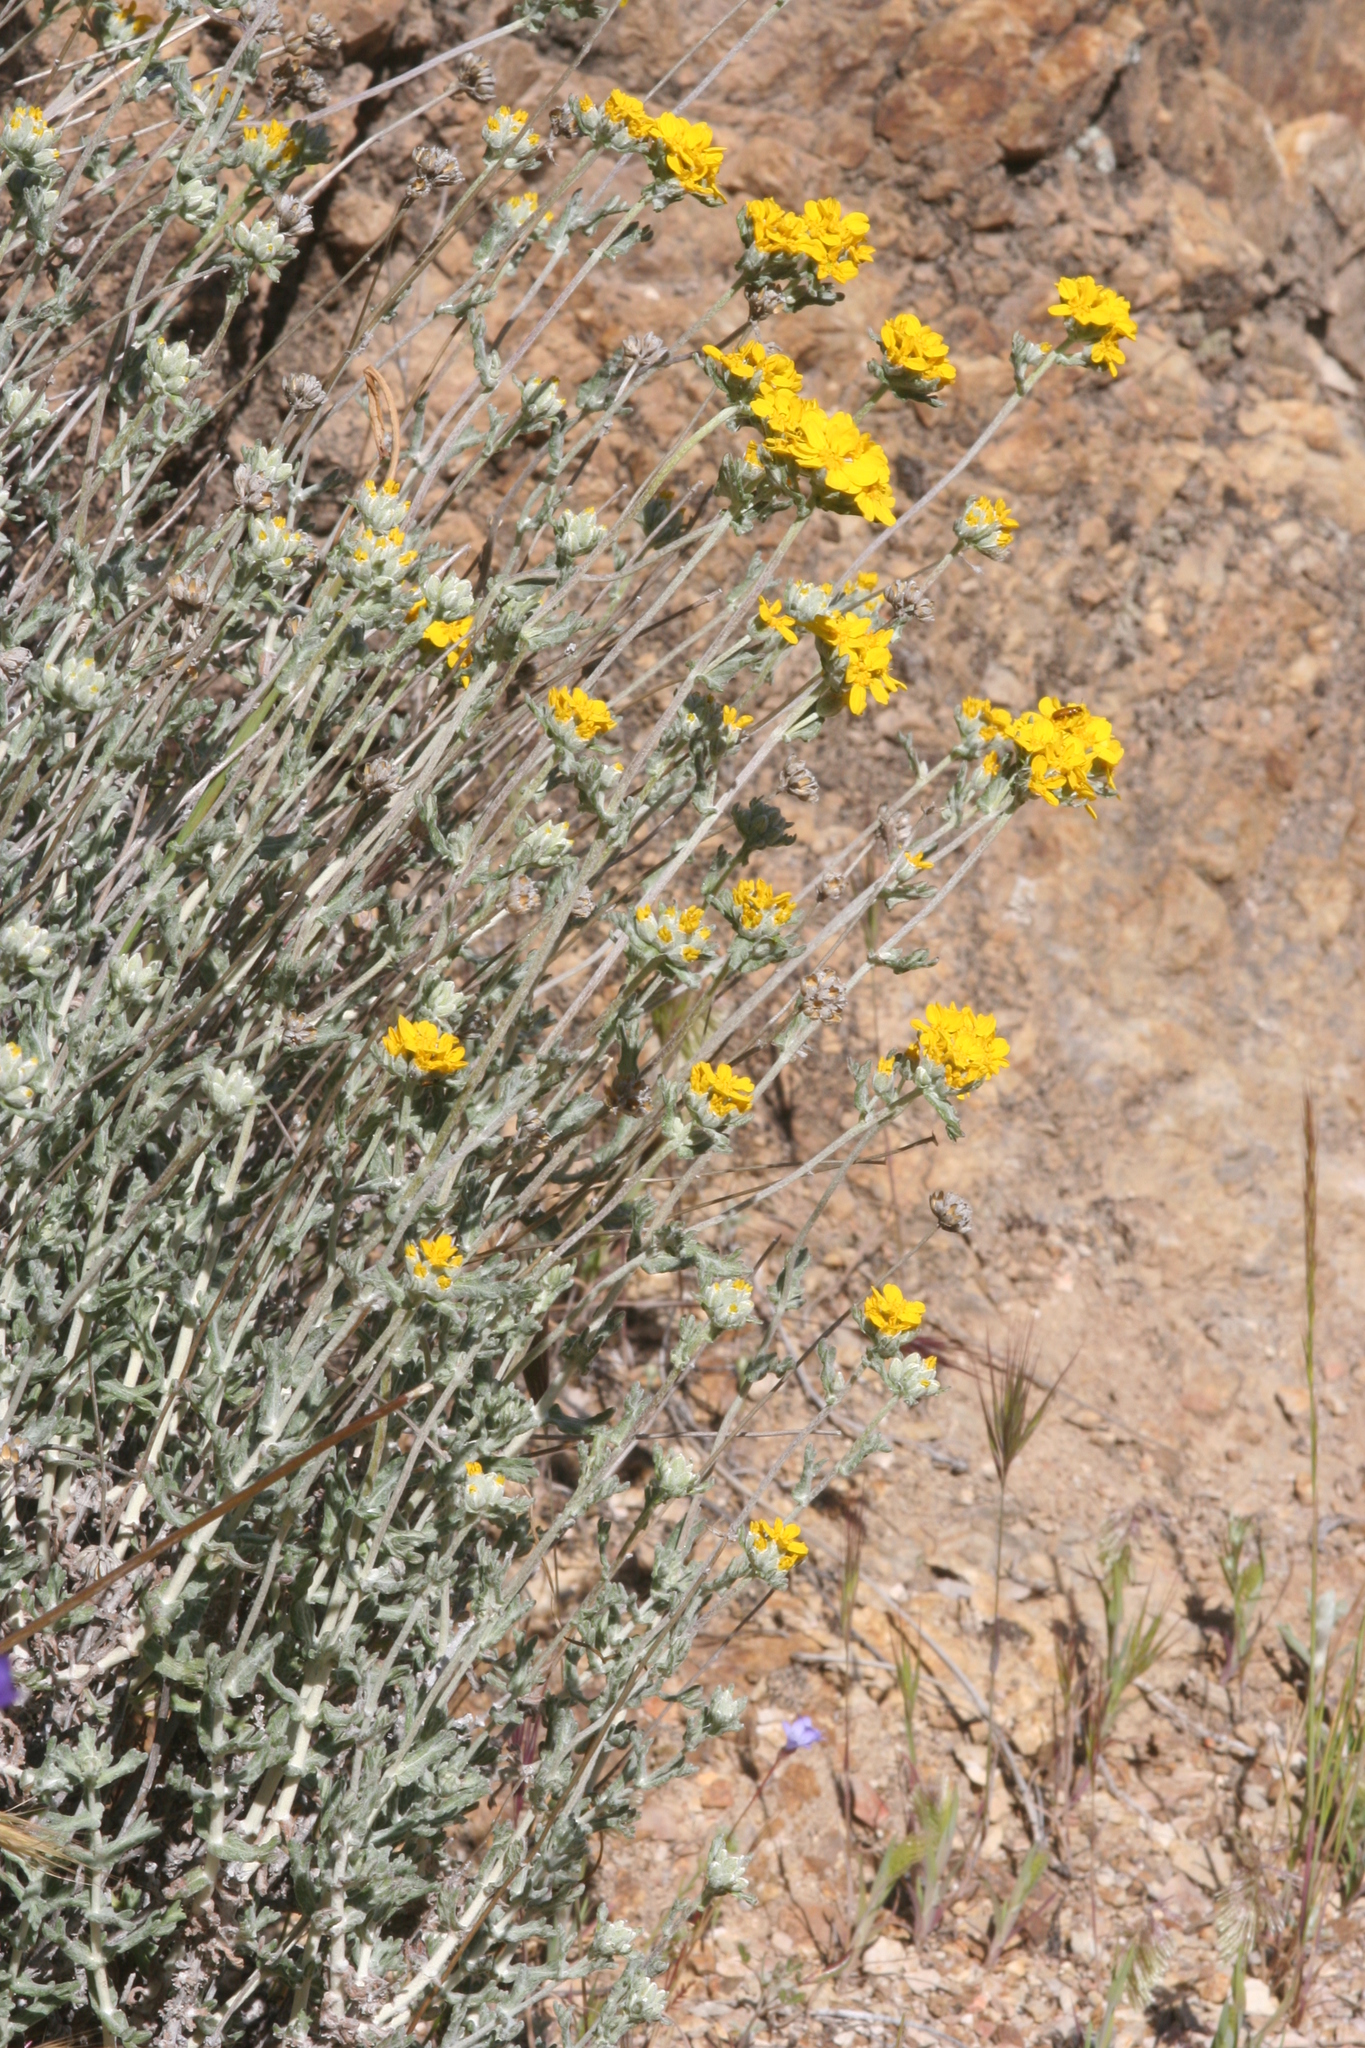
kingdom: Plantae
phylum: Tracheophyta
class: Magnoliopsida
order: Asterales
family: Asteraceae
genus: Eriophyllum
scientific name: Eriophyllum confertiflorum
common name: Golden-yarrow
